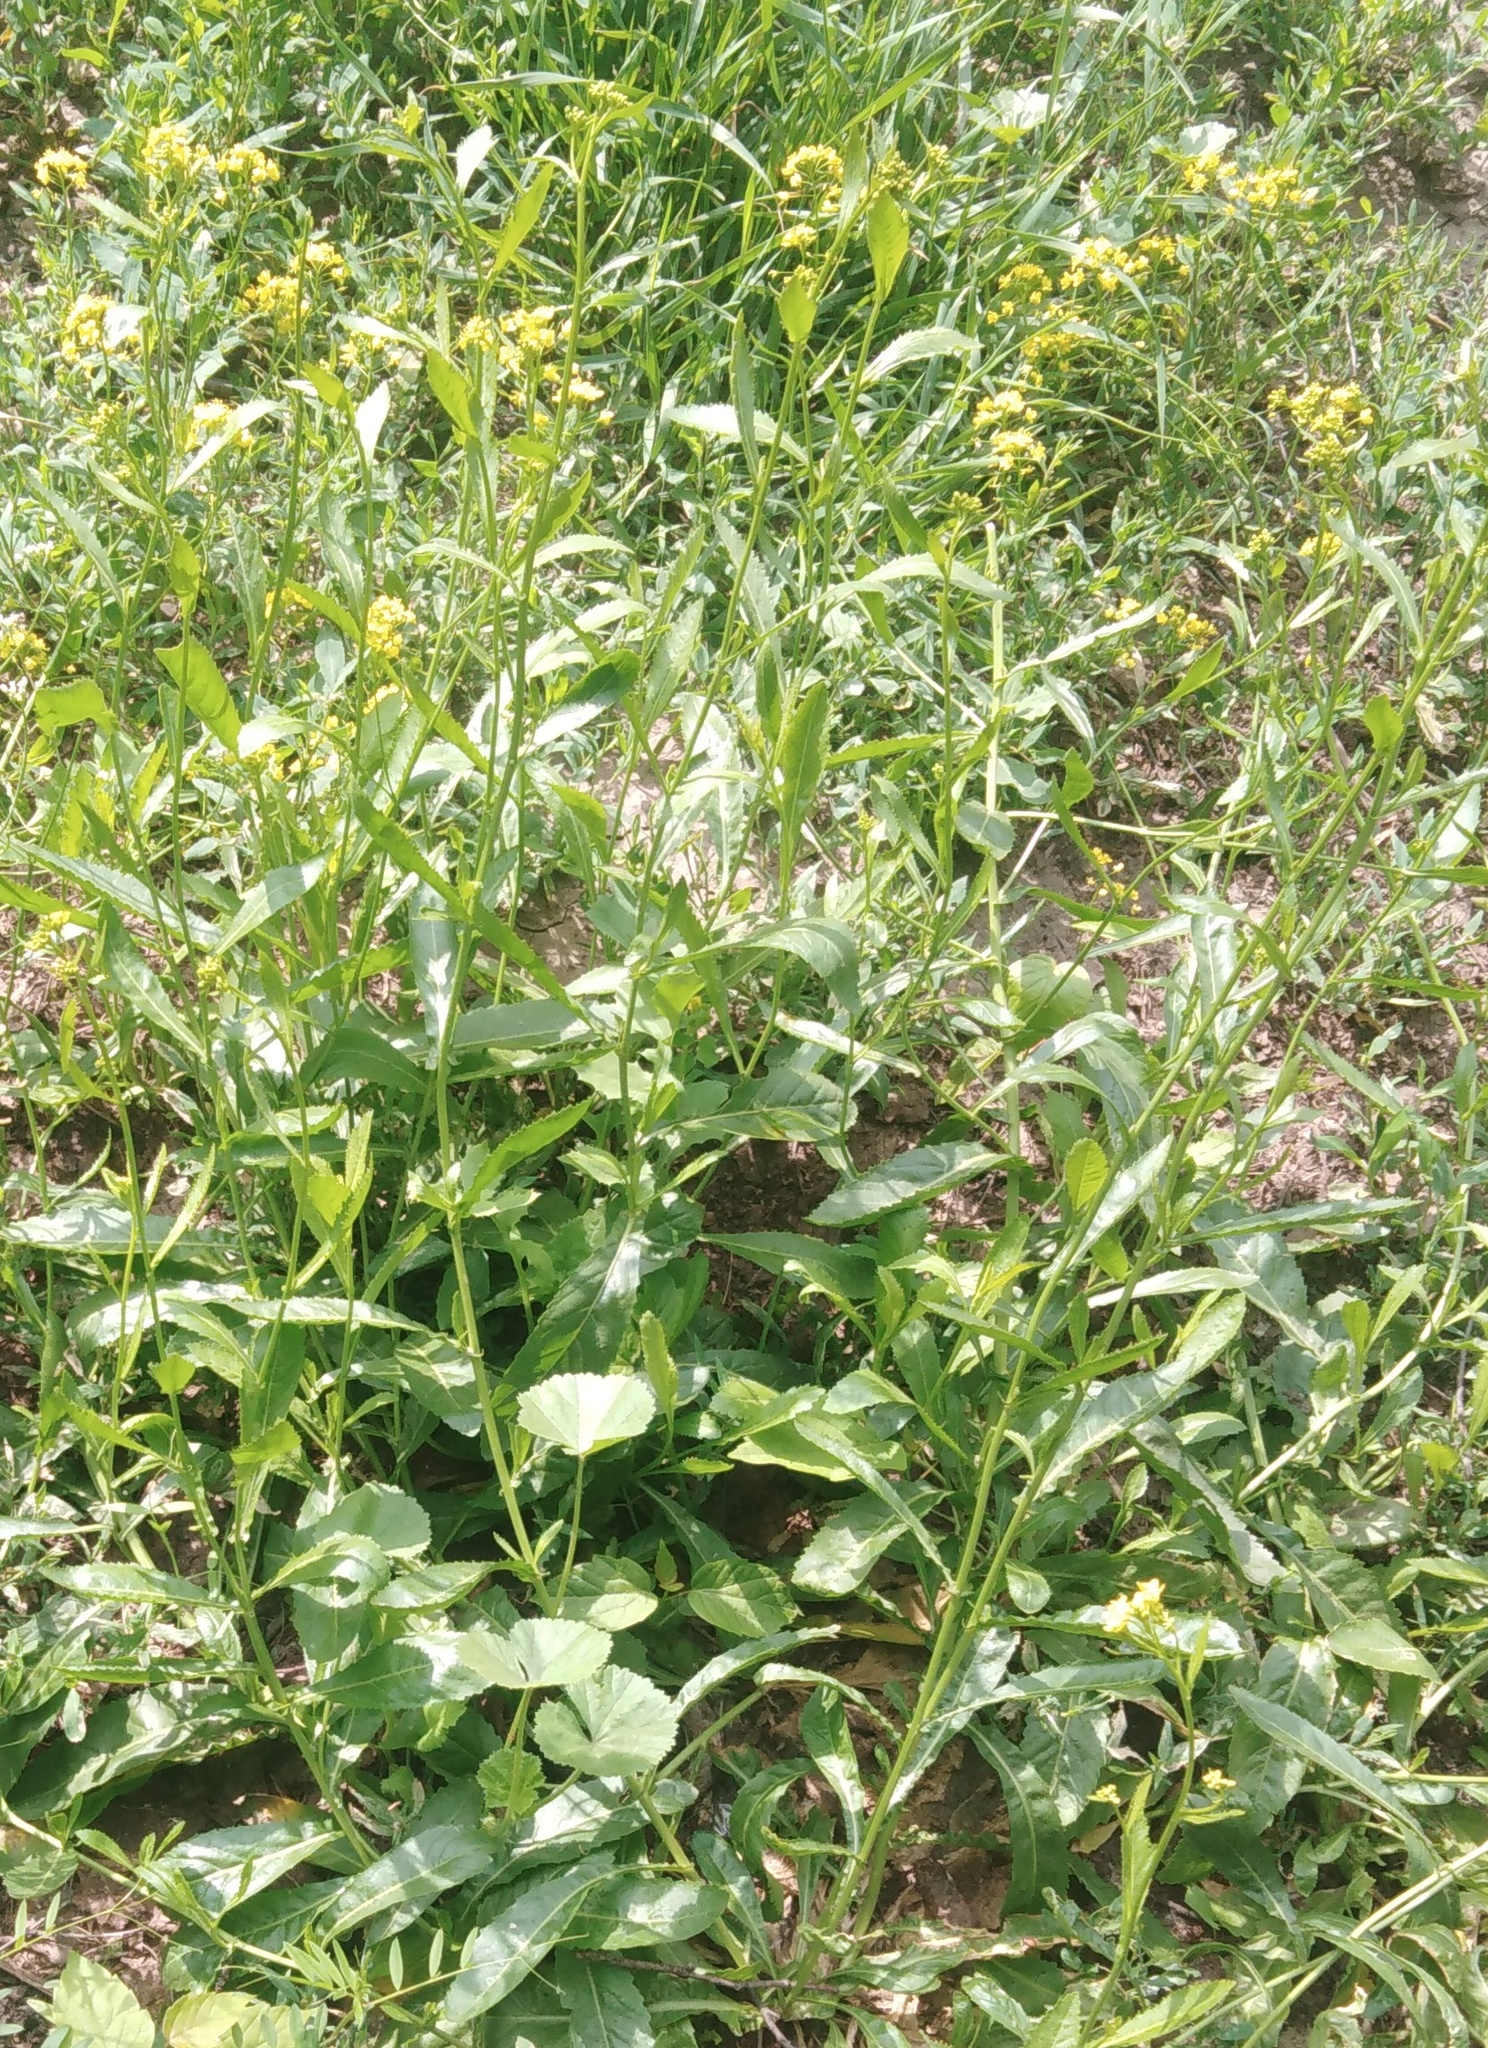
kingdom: Plantae
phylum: Tracheophyta
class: Magnoliopsida
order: Brassicales
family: Brassicaceae
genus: Rorippa
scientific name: Rorippa austriaca
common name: Austrian yellow-cress
